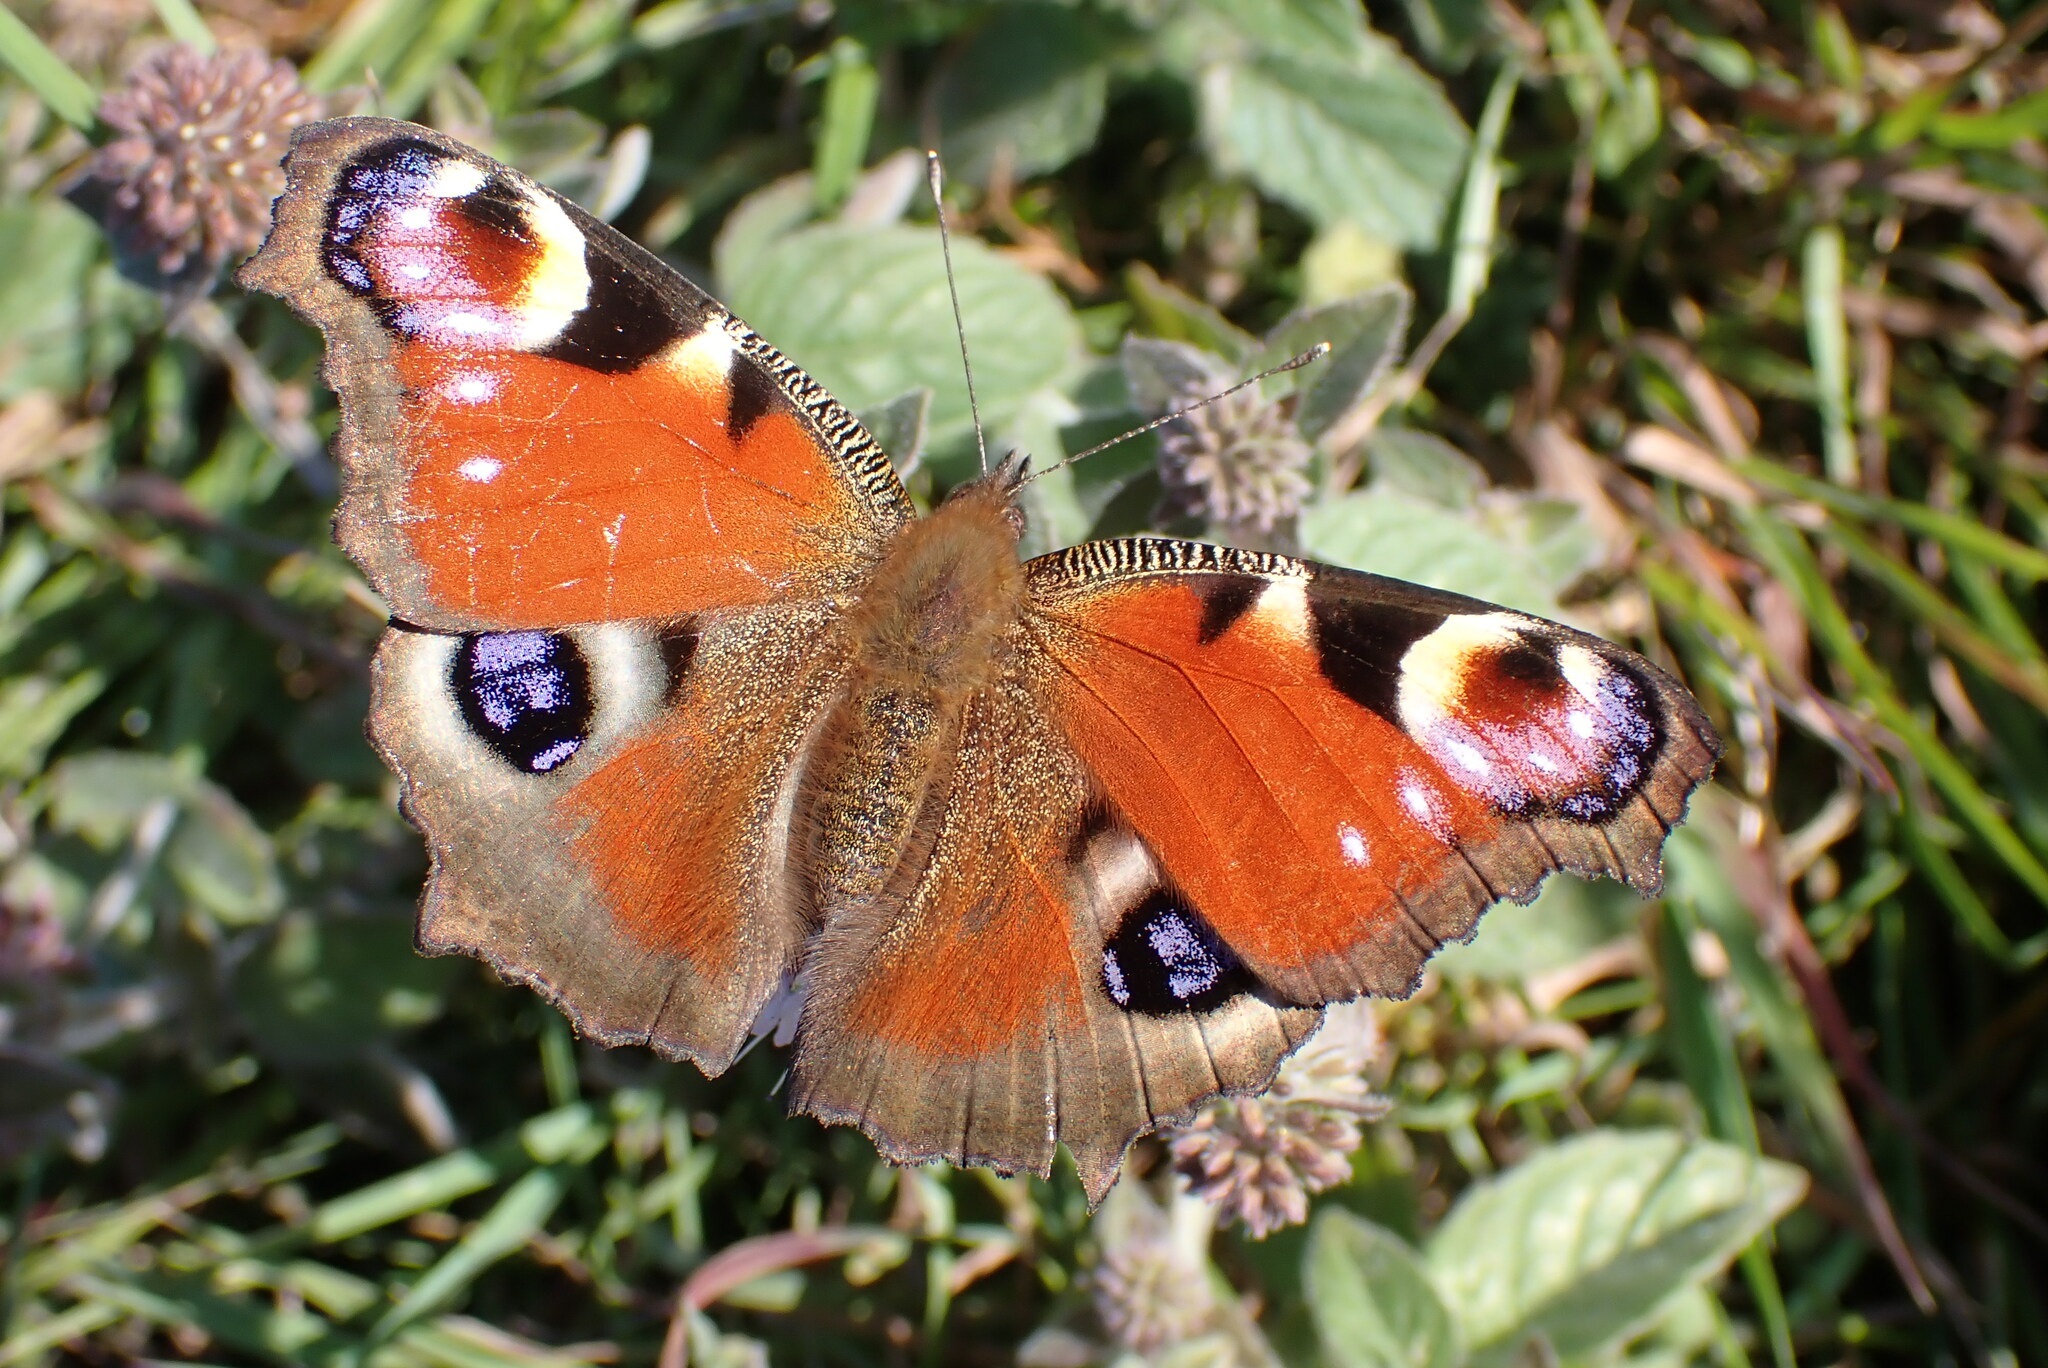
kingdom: Animalia
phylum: Arthropoda
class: Insecta
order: Lepidoptera
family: Nymphalidae
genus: Aglais
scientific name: Aglais io
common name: Peacock
